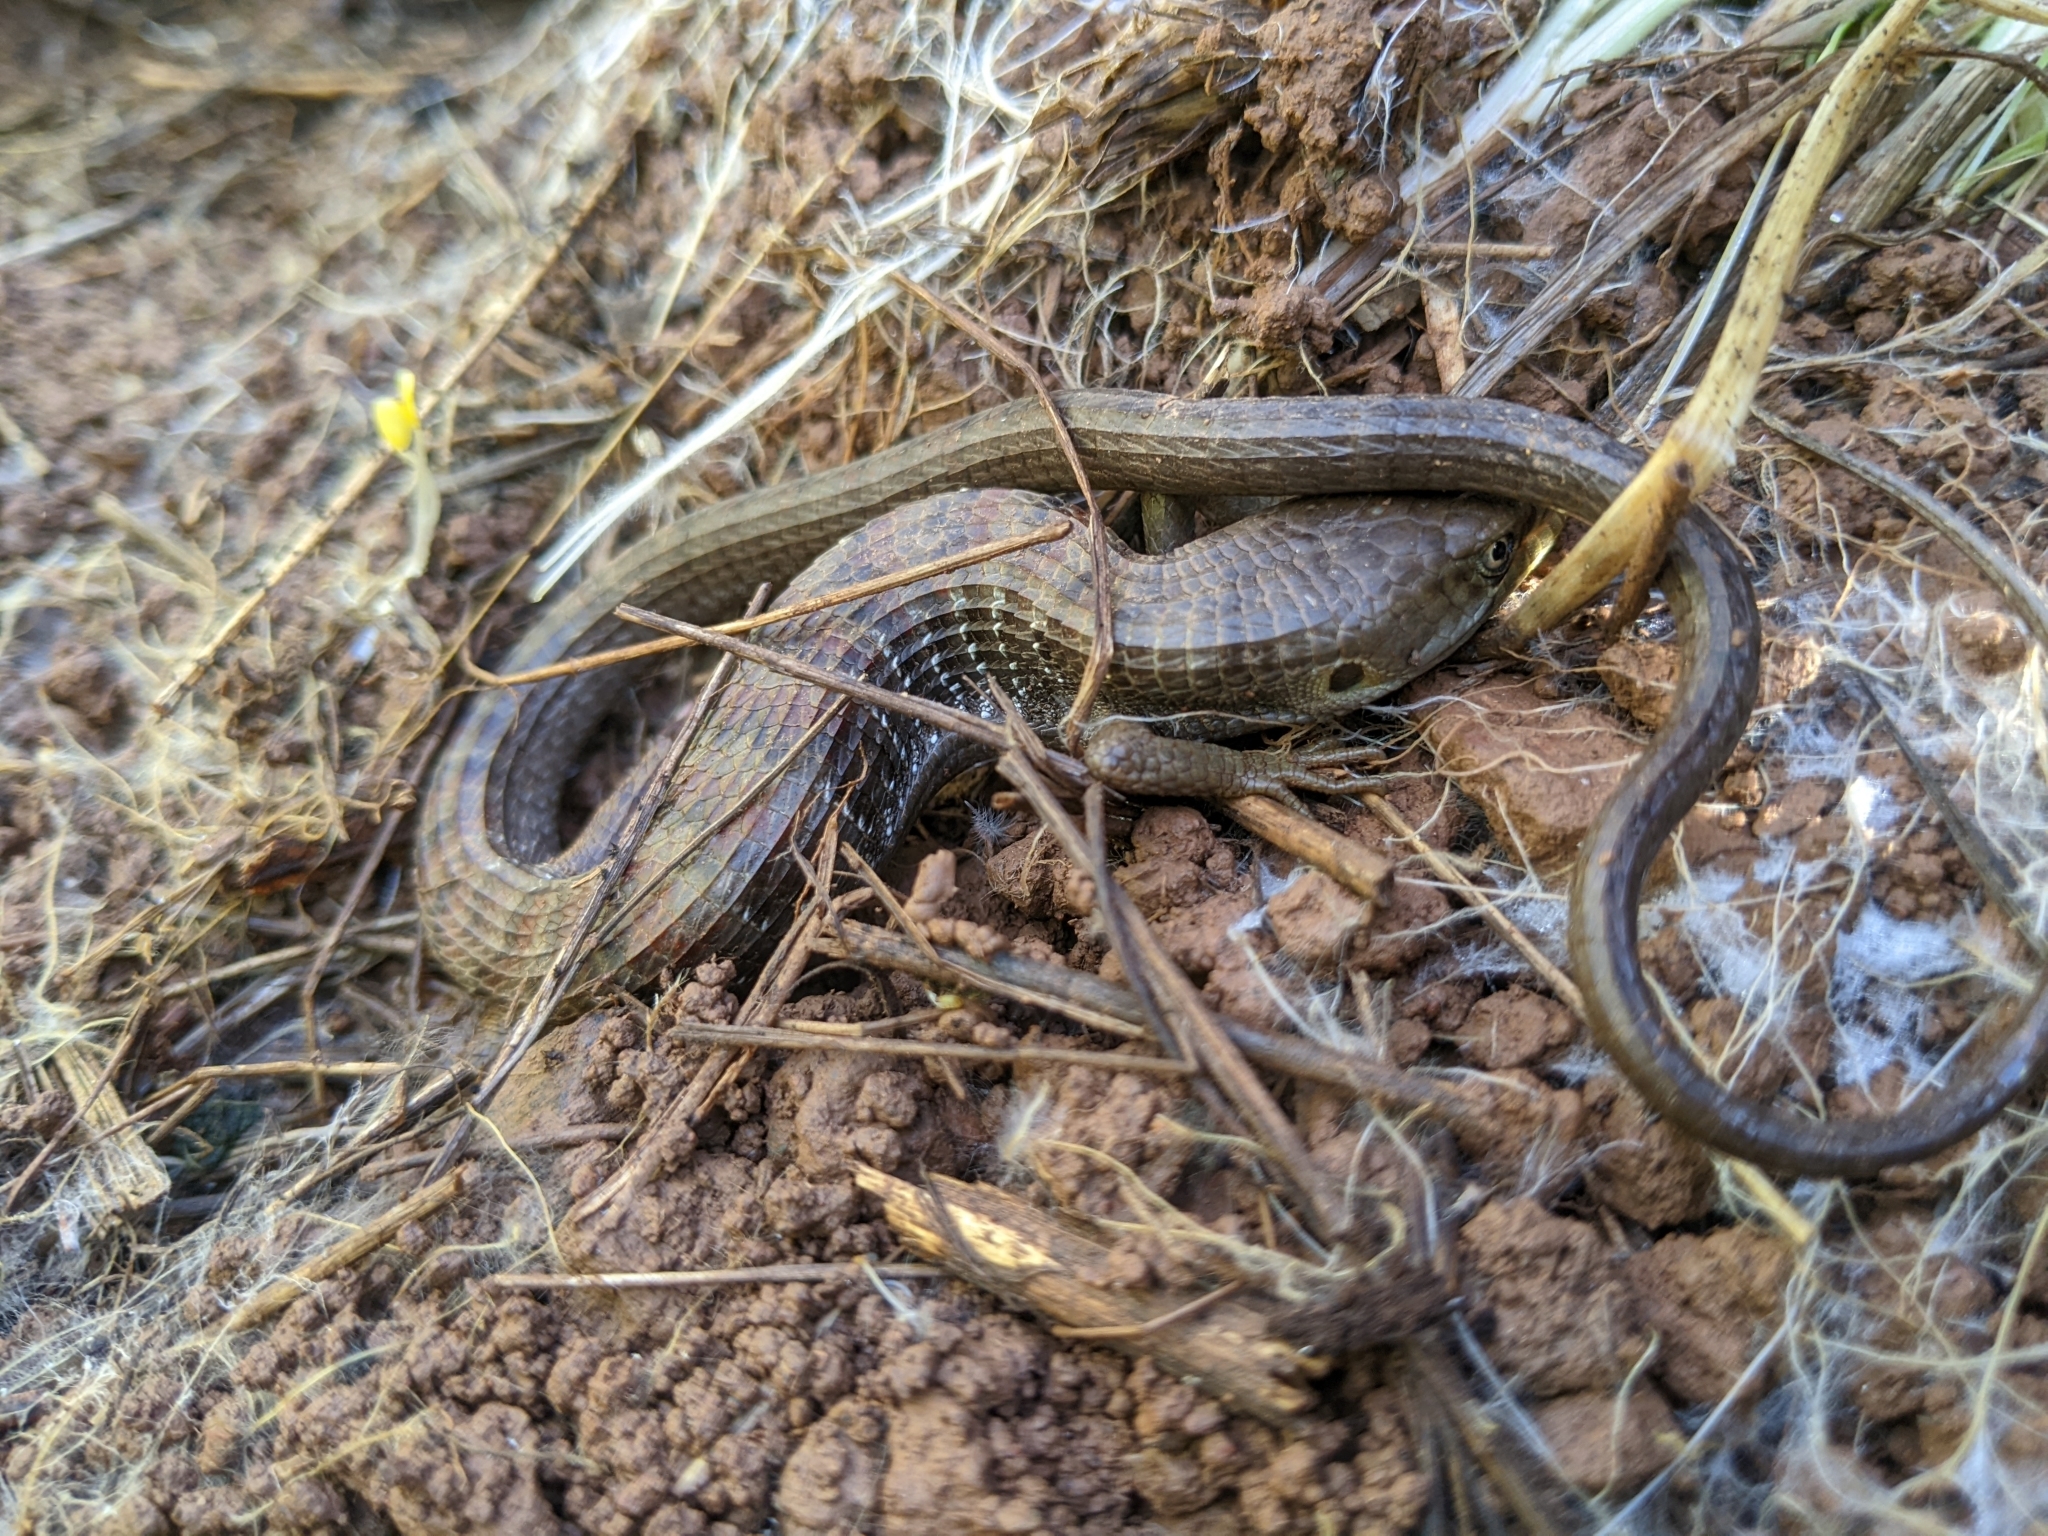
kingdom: Animalia
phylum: Chordata
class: Squamata
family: Anguidae
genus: Elgaria
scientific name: Elgaria multicarinata
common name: Southern alligator lizard
